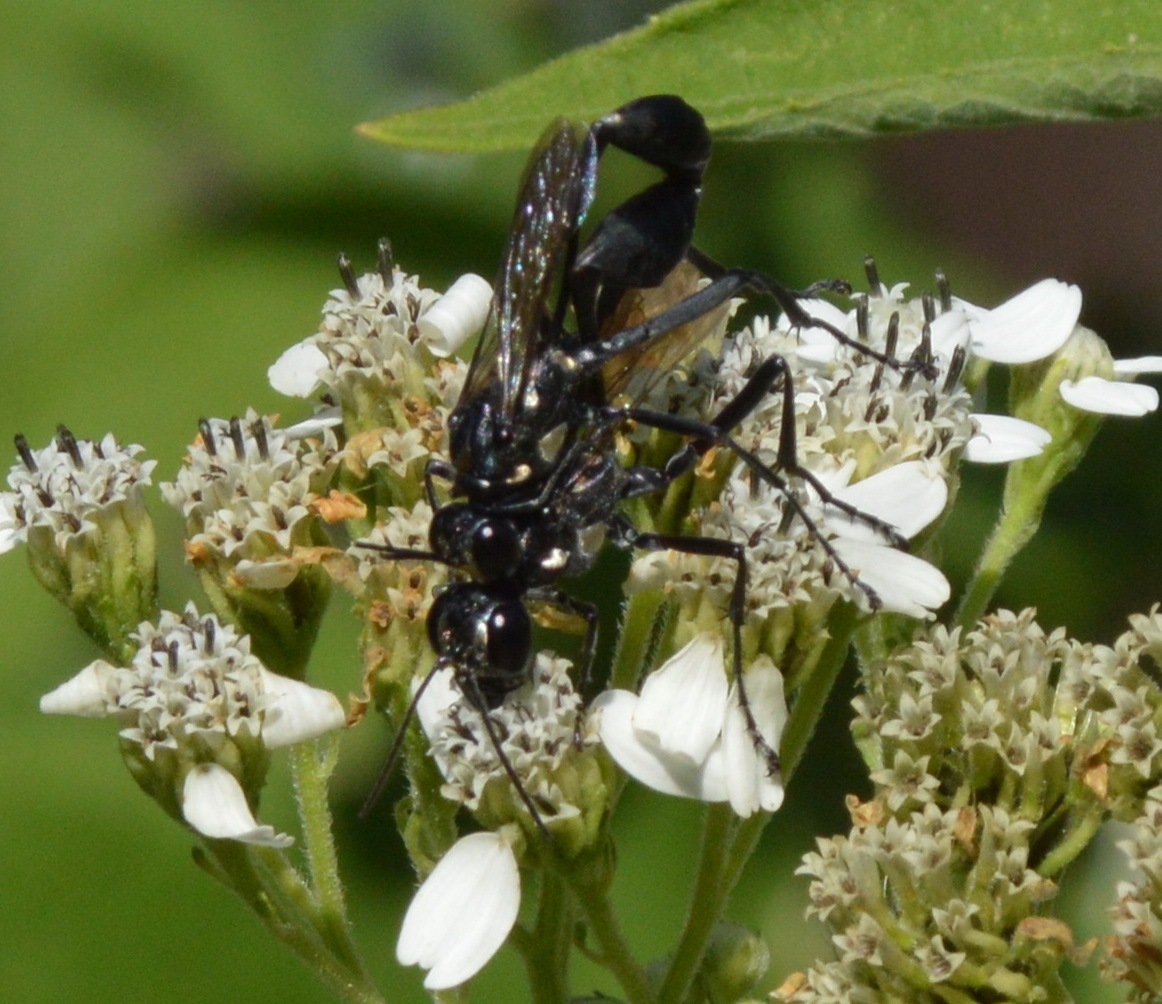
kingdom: Animalia
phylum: Arthropoda
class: Insecta
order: Hymenoptera
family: Sphecidae
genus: Eremnophila
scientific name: Eremnophila aureonotata
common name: Gold-marked thread-waisted wasp
